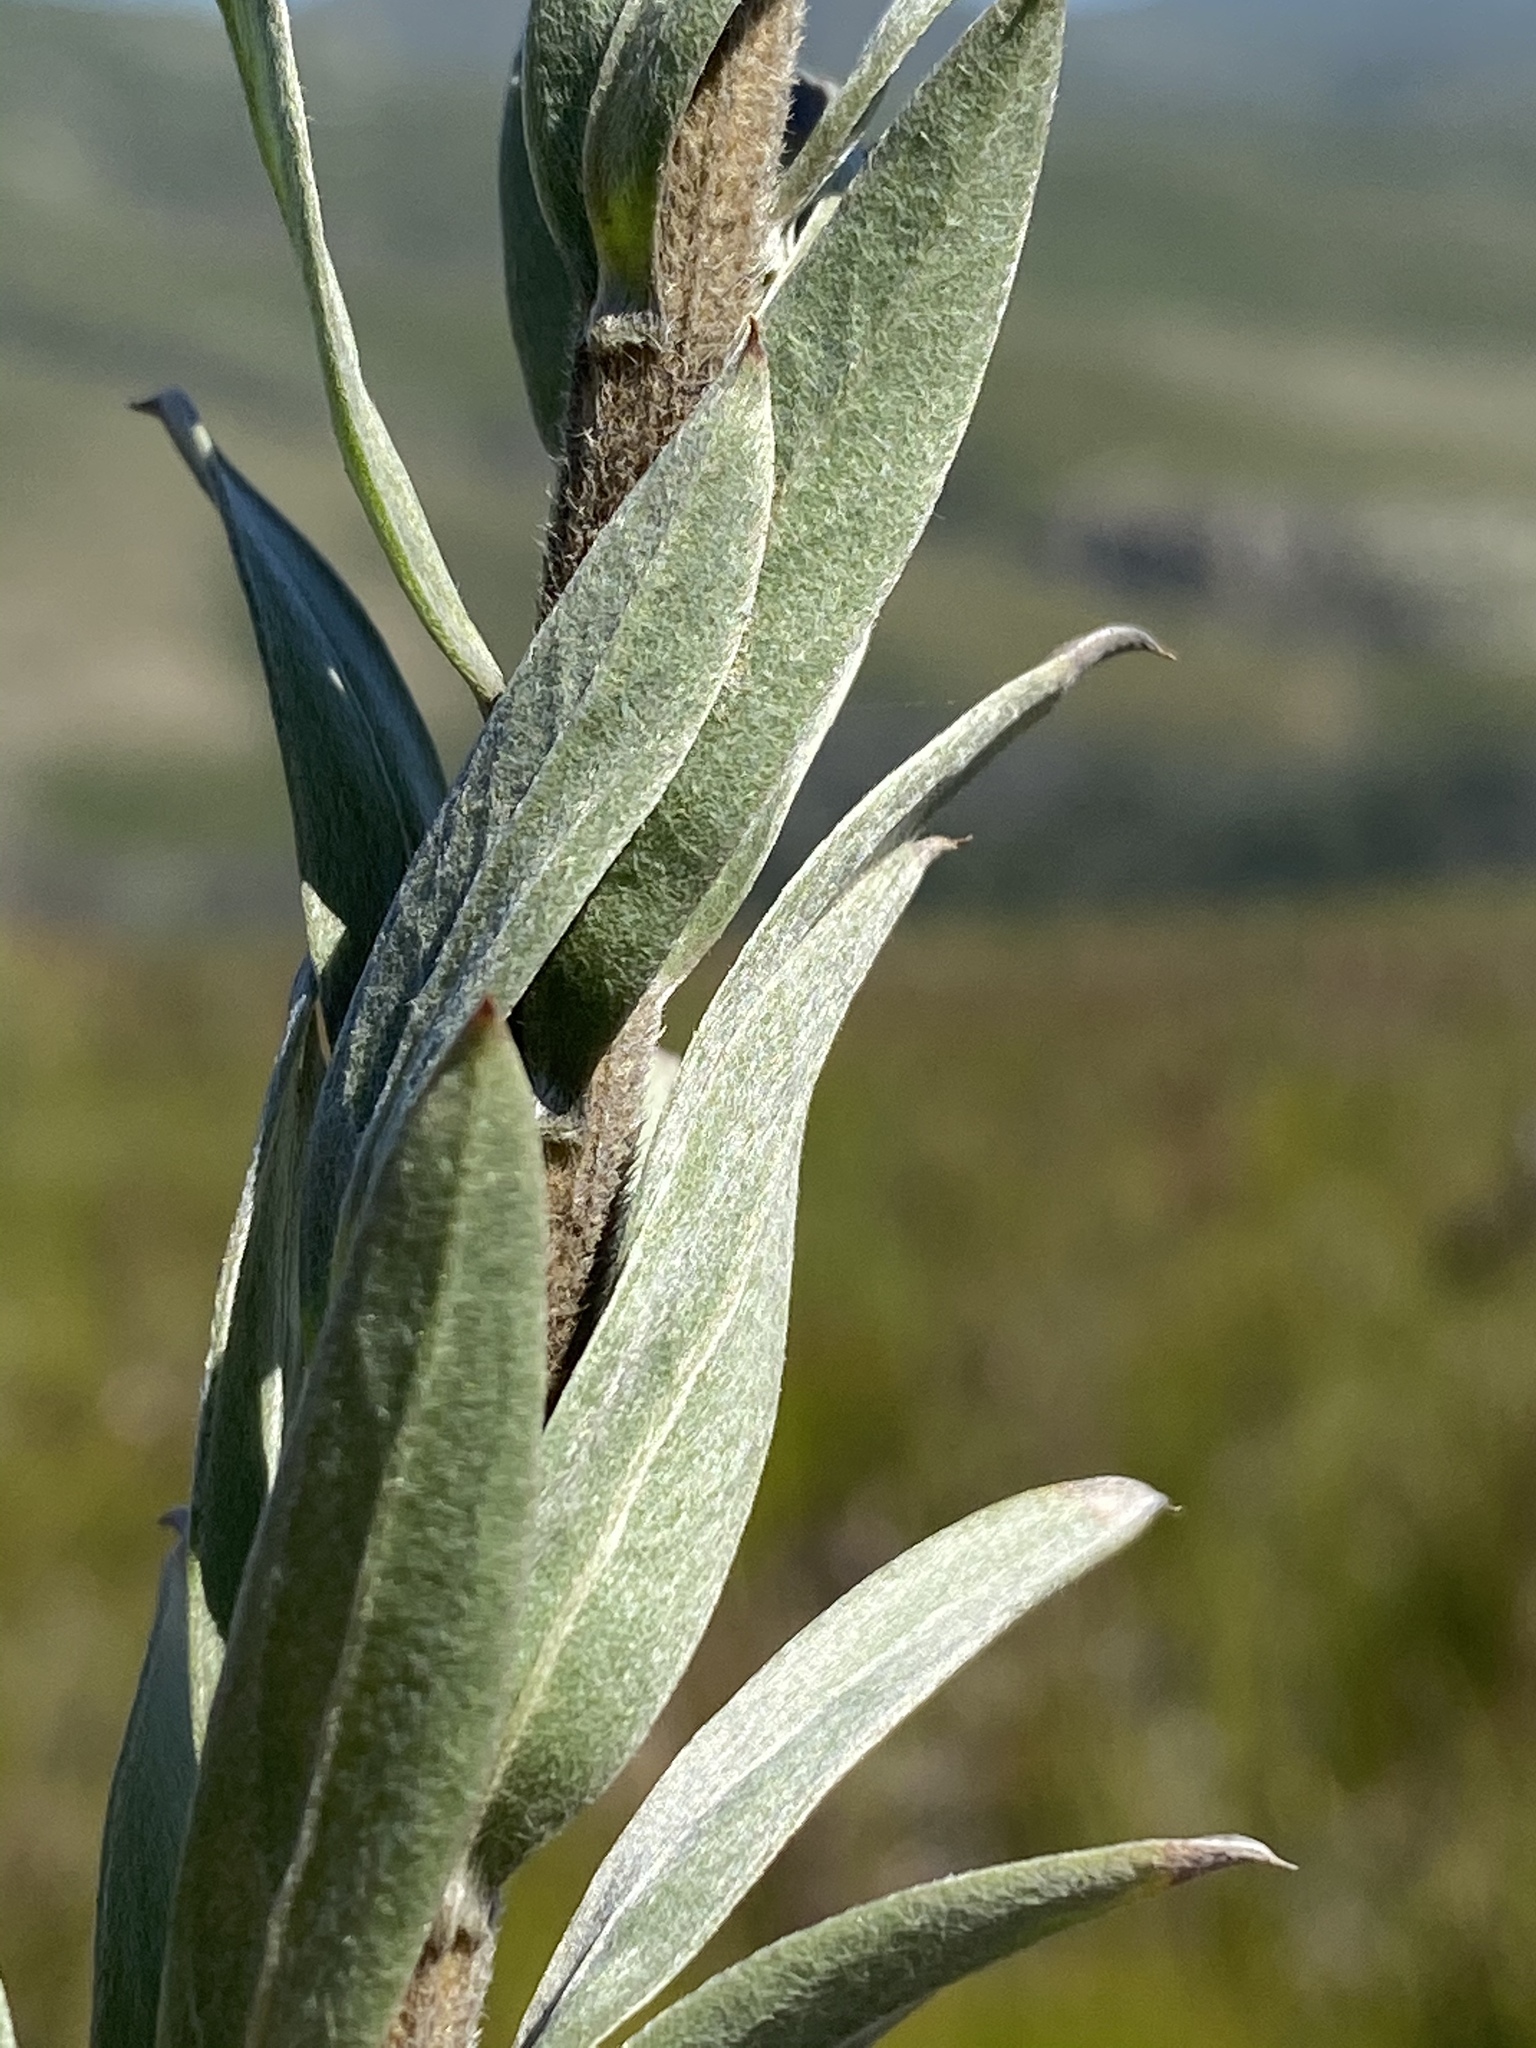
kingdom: Plantae
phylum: Tracheophyta
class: Magnoliopsida
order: Asterales
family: Asteraceae
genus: Schistostephium
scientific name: Schistostephium umbellatum
